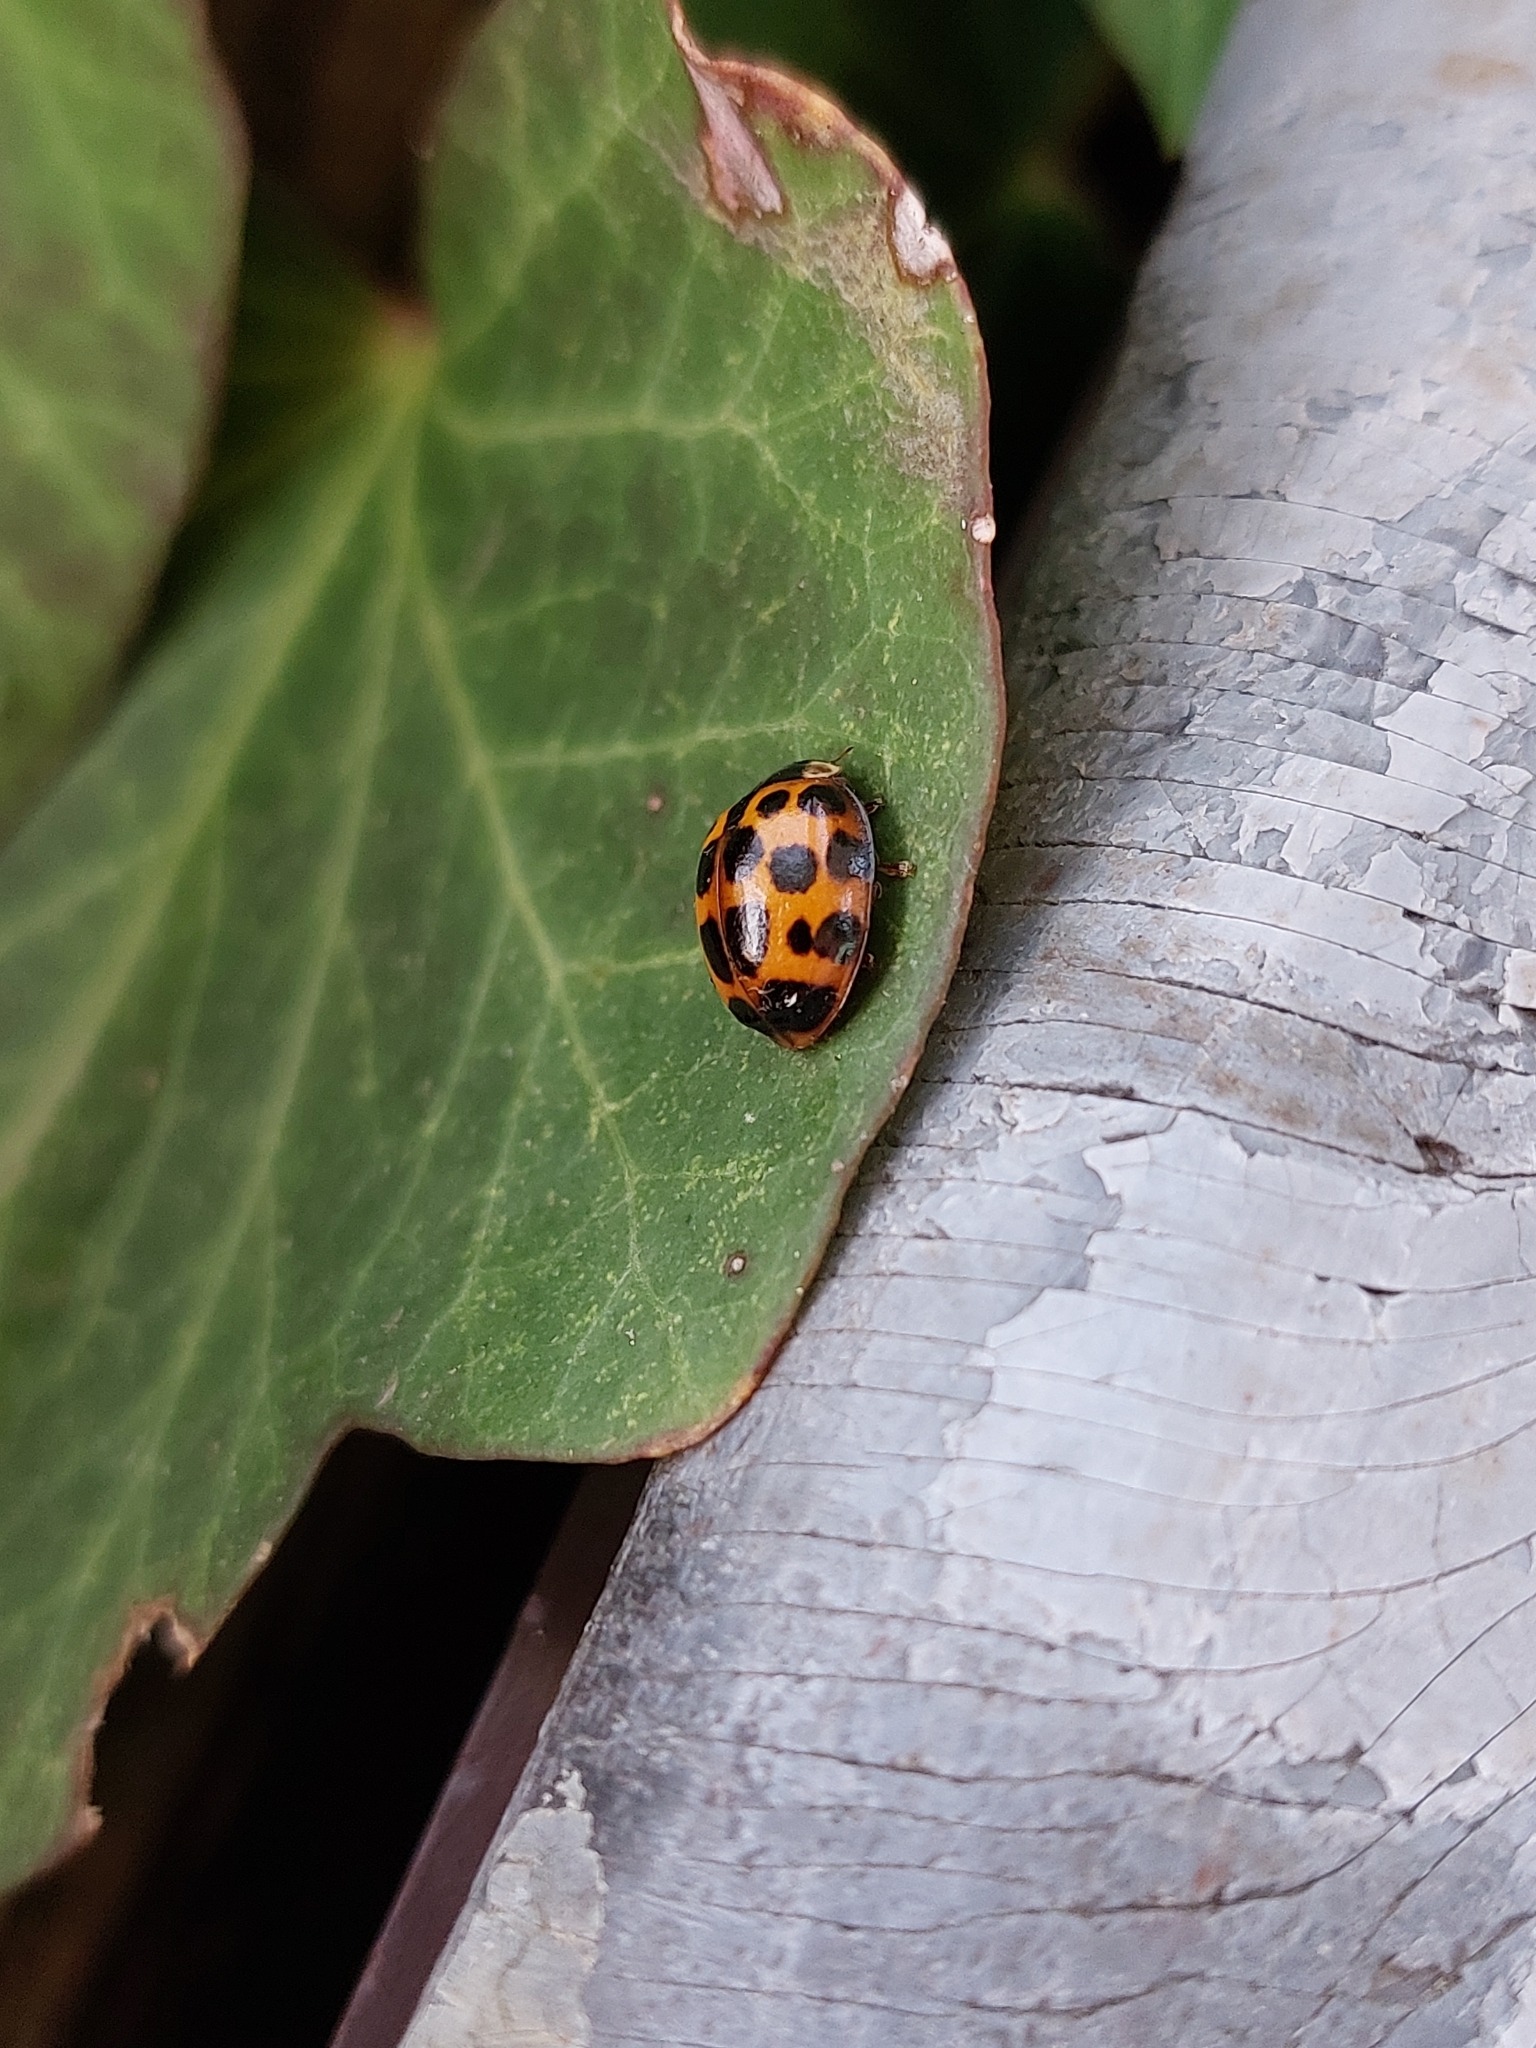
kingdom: Animalia
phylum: Arthropoda
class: Insecta
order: Coleoptera
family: Coccinellidae
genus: Harmonia
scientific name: Harmonia axyridis
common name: Harlequin ladybird
